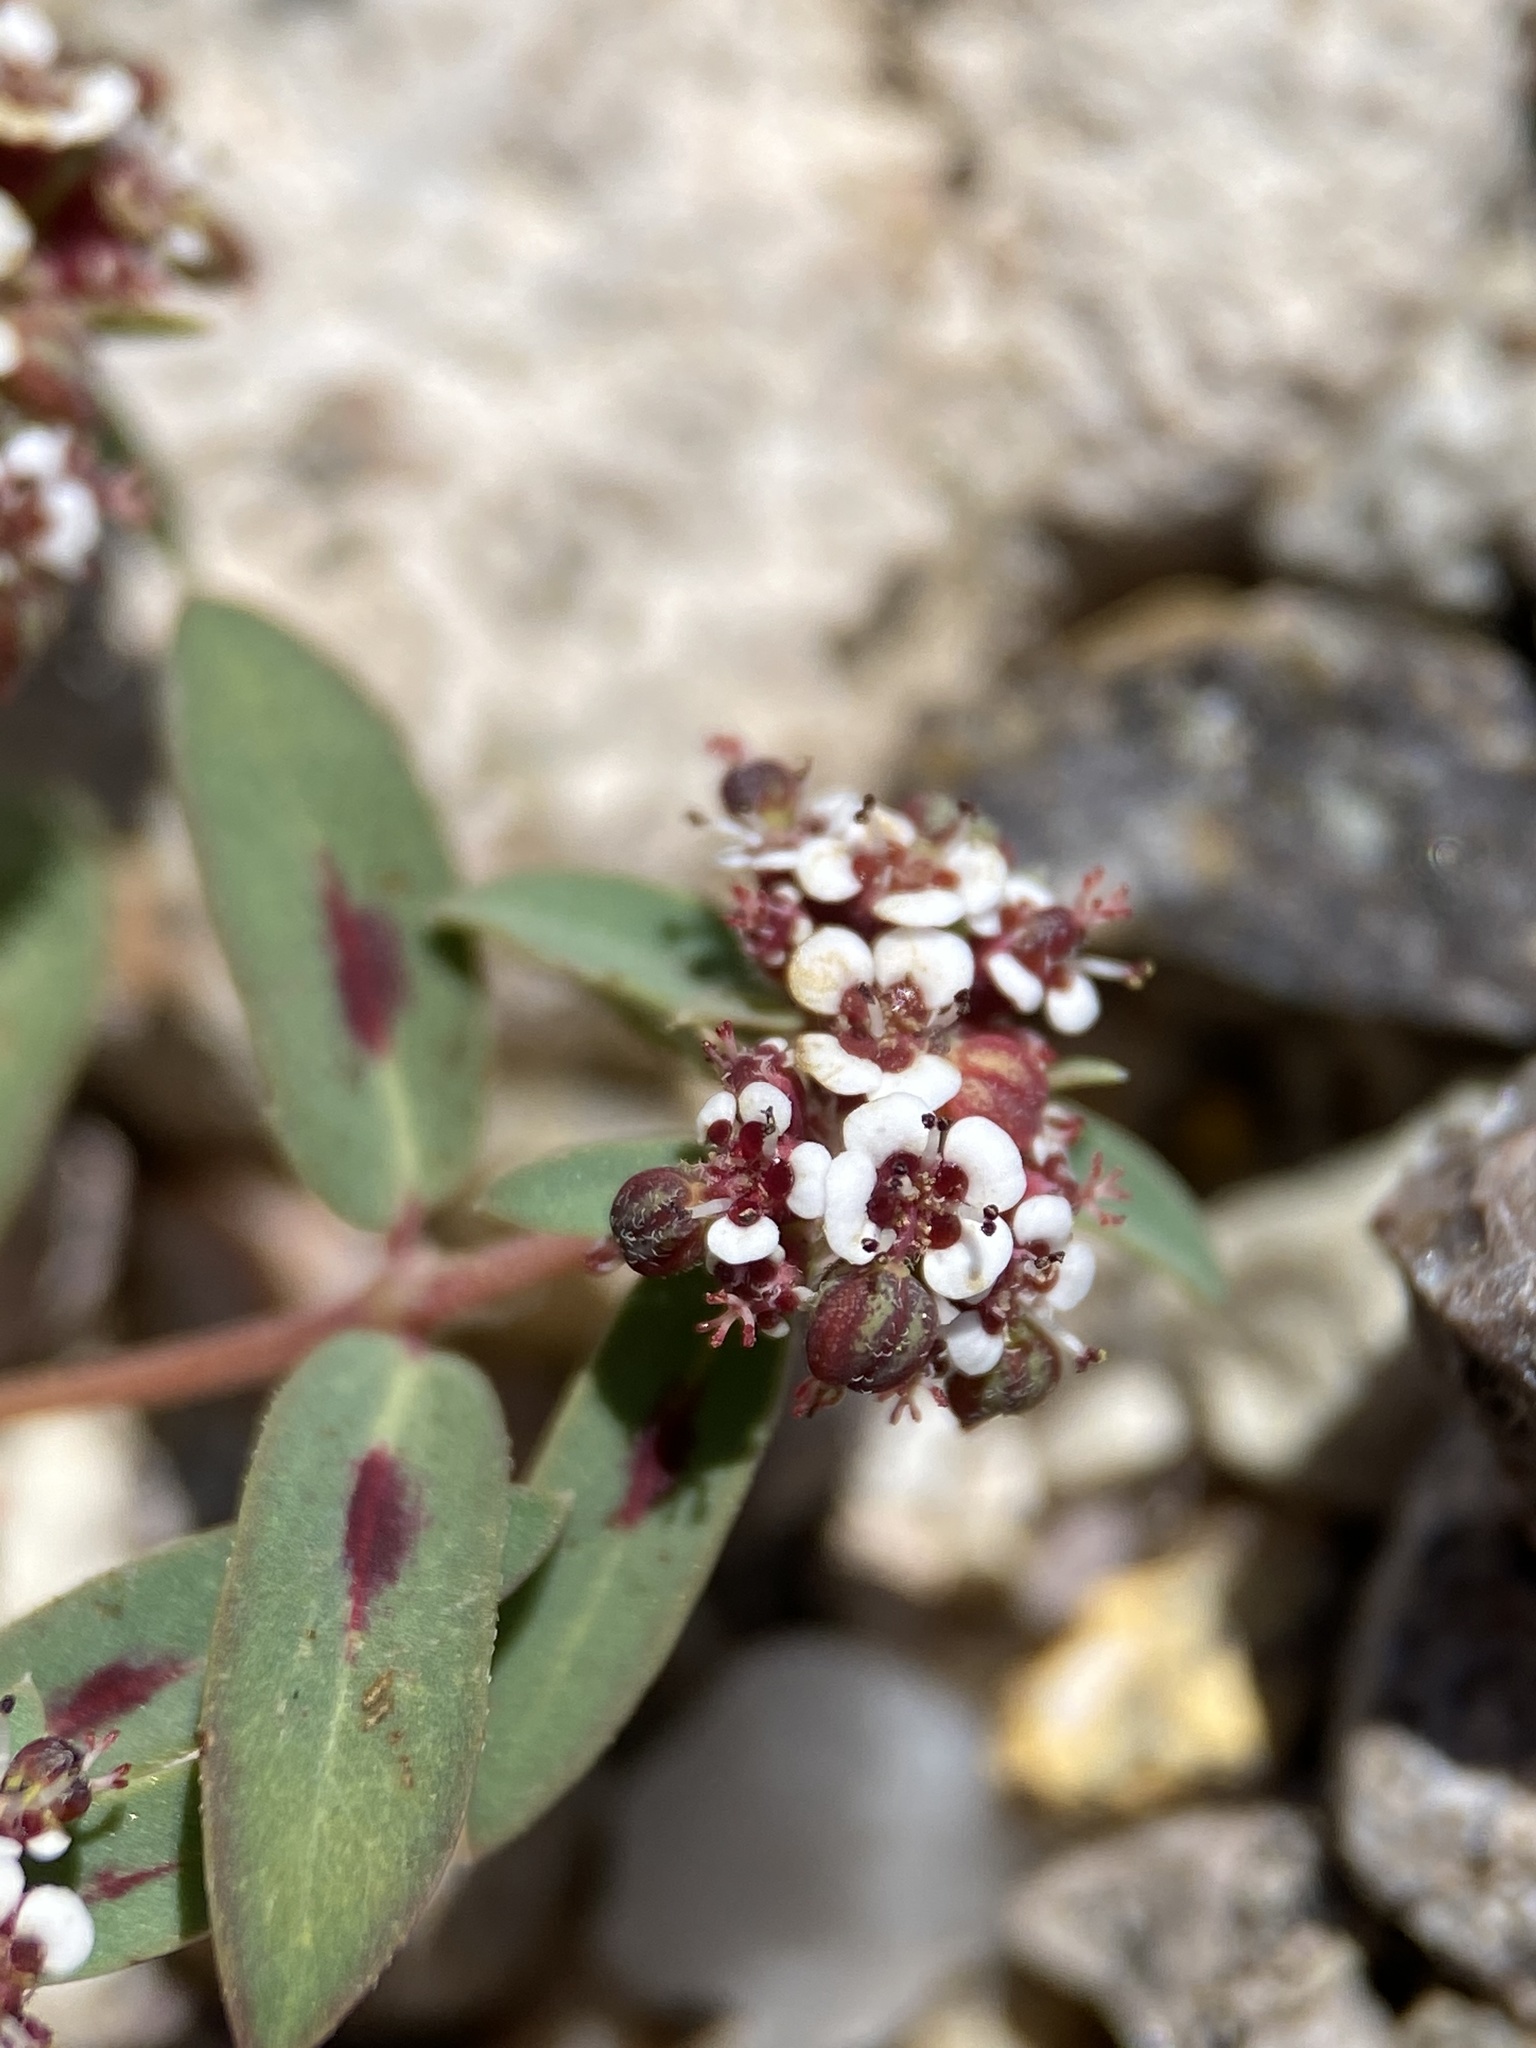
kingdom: Plantae
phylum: Tracheophyta
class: Magnoliopsida
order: Malpighiales
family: Euphorbiaceae
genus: Euphorbia
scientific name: Euphorbia capitellata
